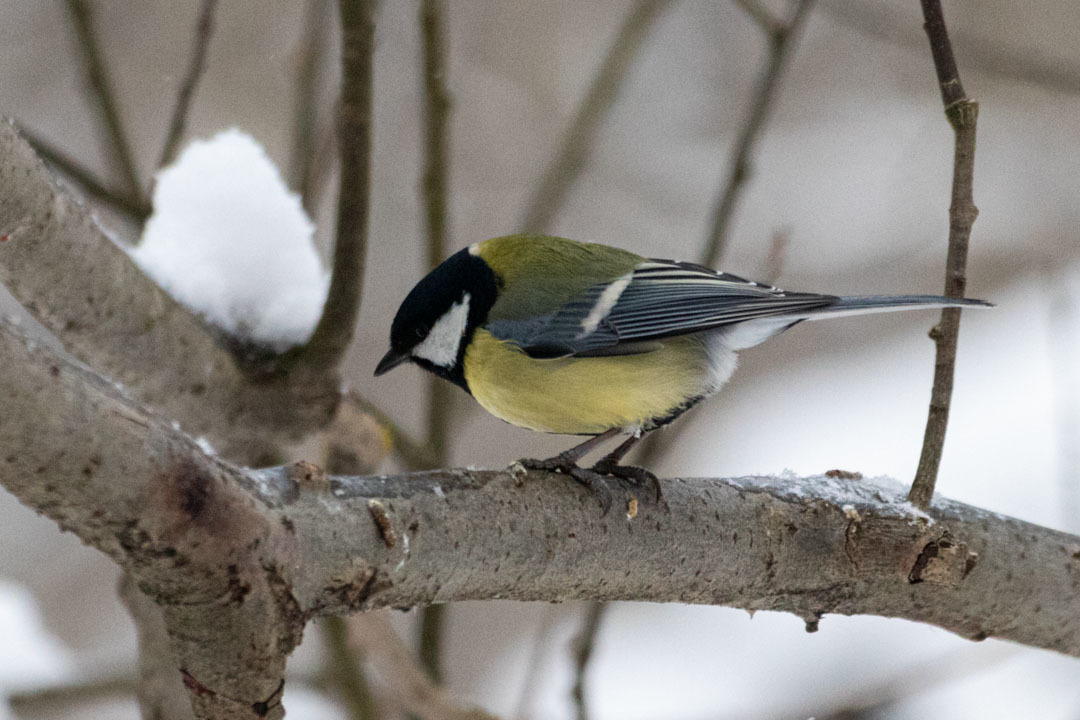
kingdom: Animalia
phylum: Chordata
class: Aves
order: Passeriformes
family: Paridae
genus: Parus
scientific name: Parus major
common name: Great tit
